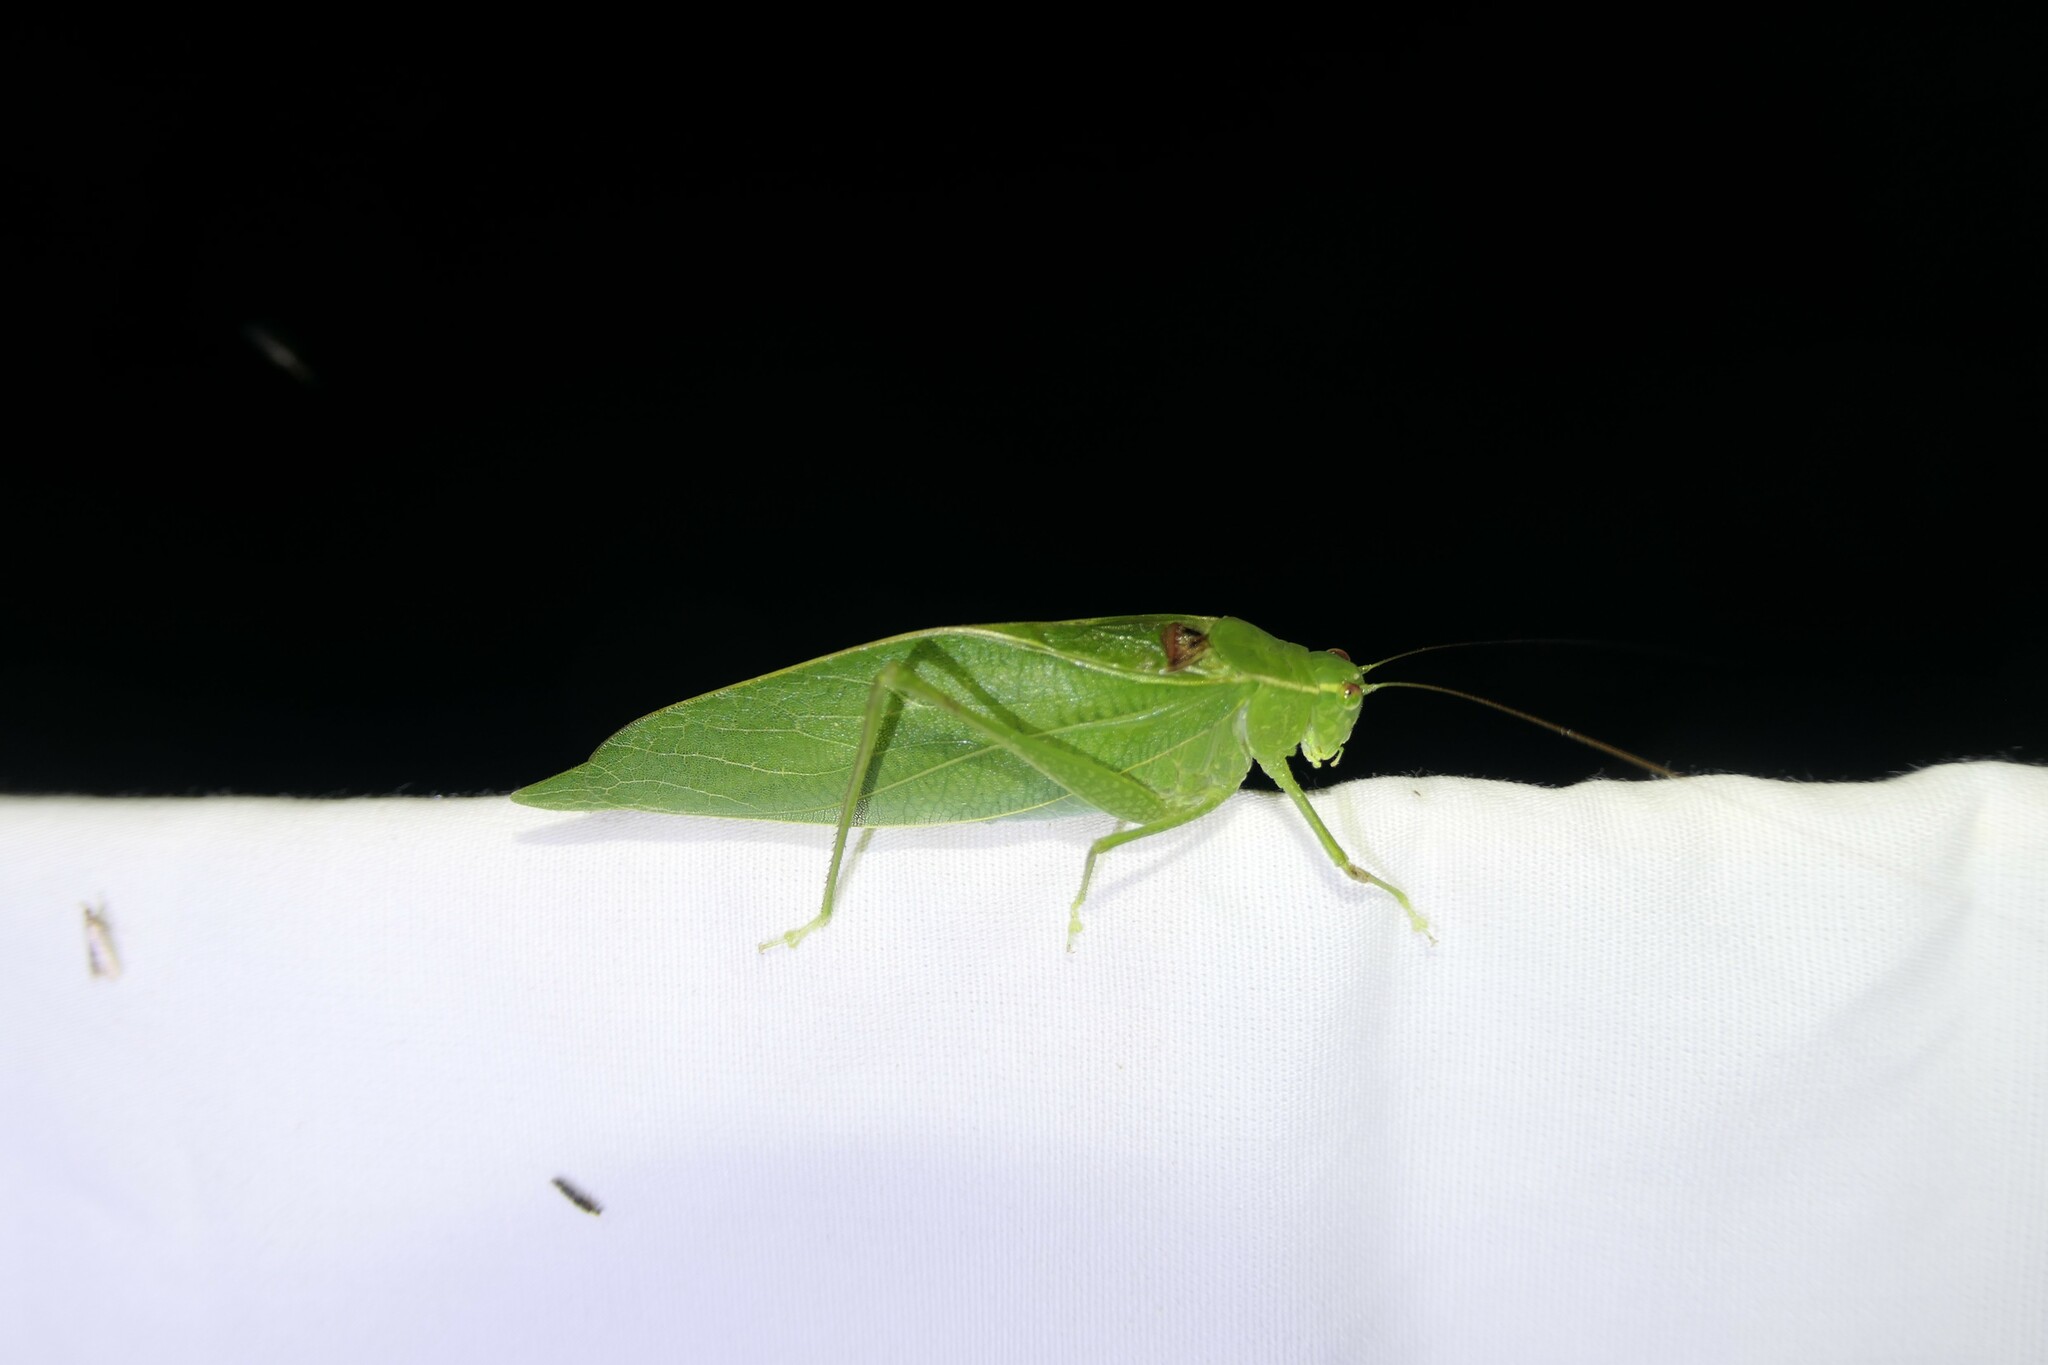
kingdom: Animalia
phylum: Arthropoda
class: Insecta
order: Orthoptera
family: Tettigoniidae
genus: Microcentrum
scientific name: Microcentrum retinerve
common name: Angular-winged katydid
